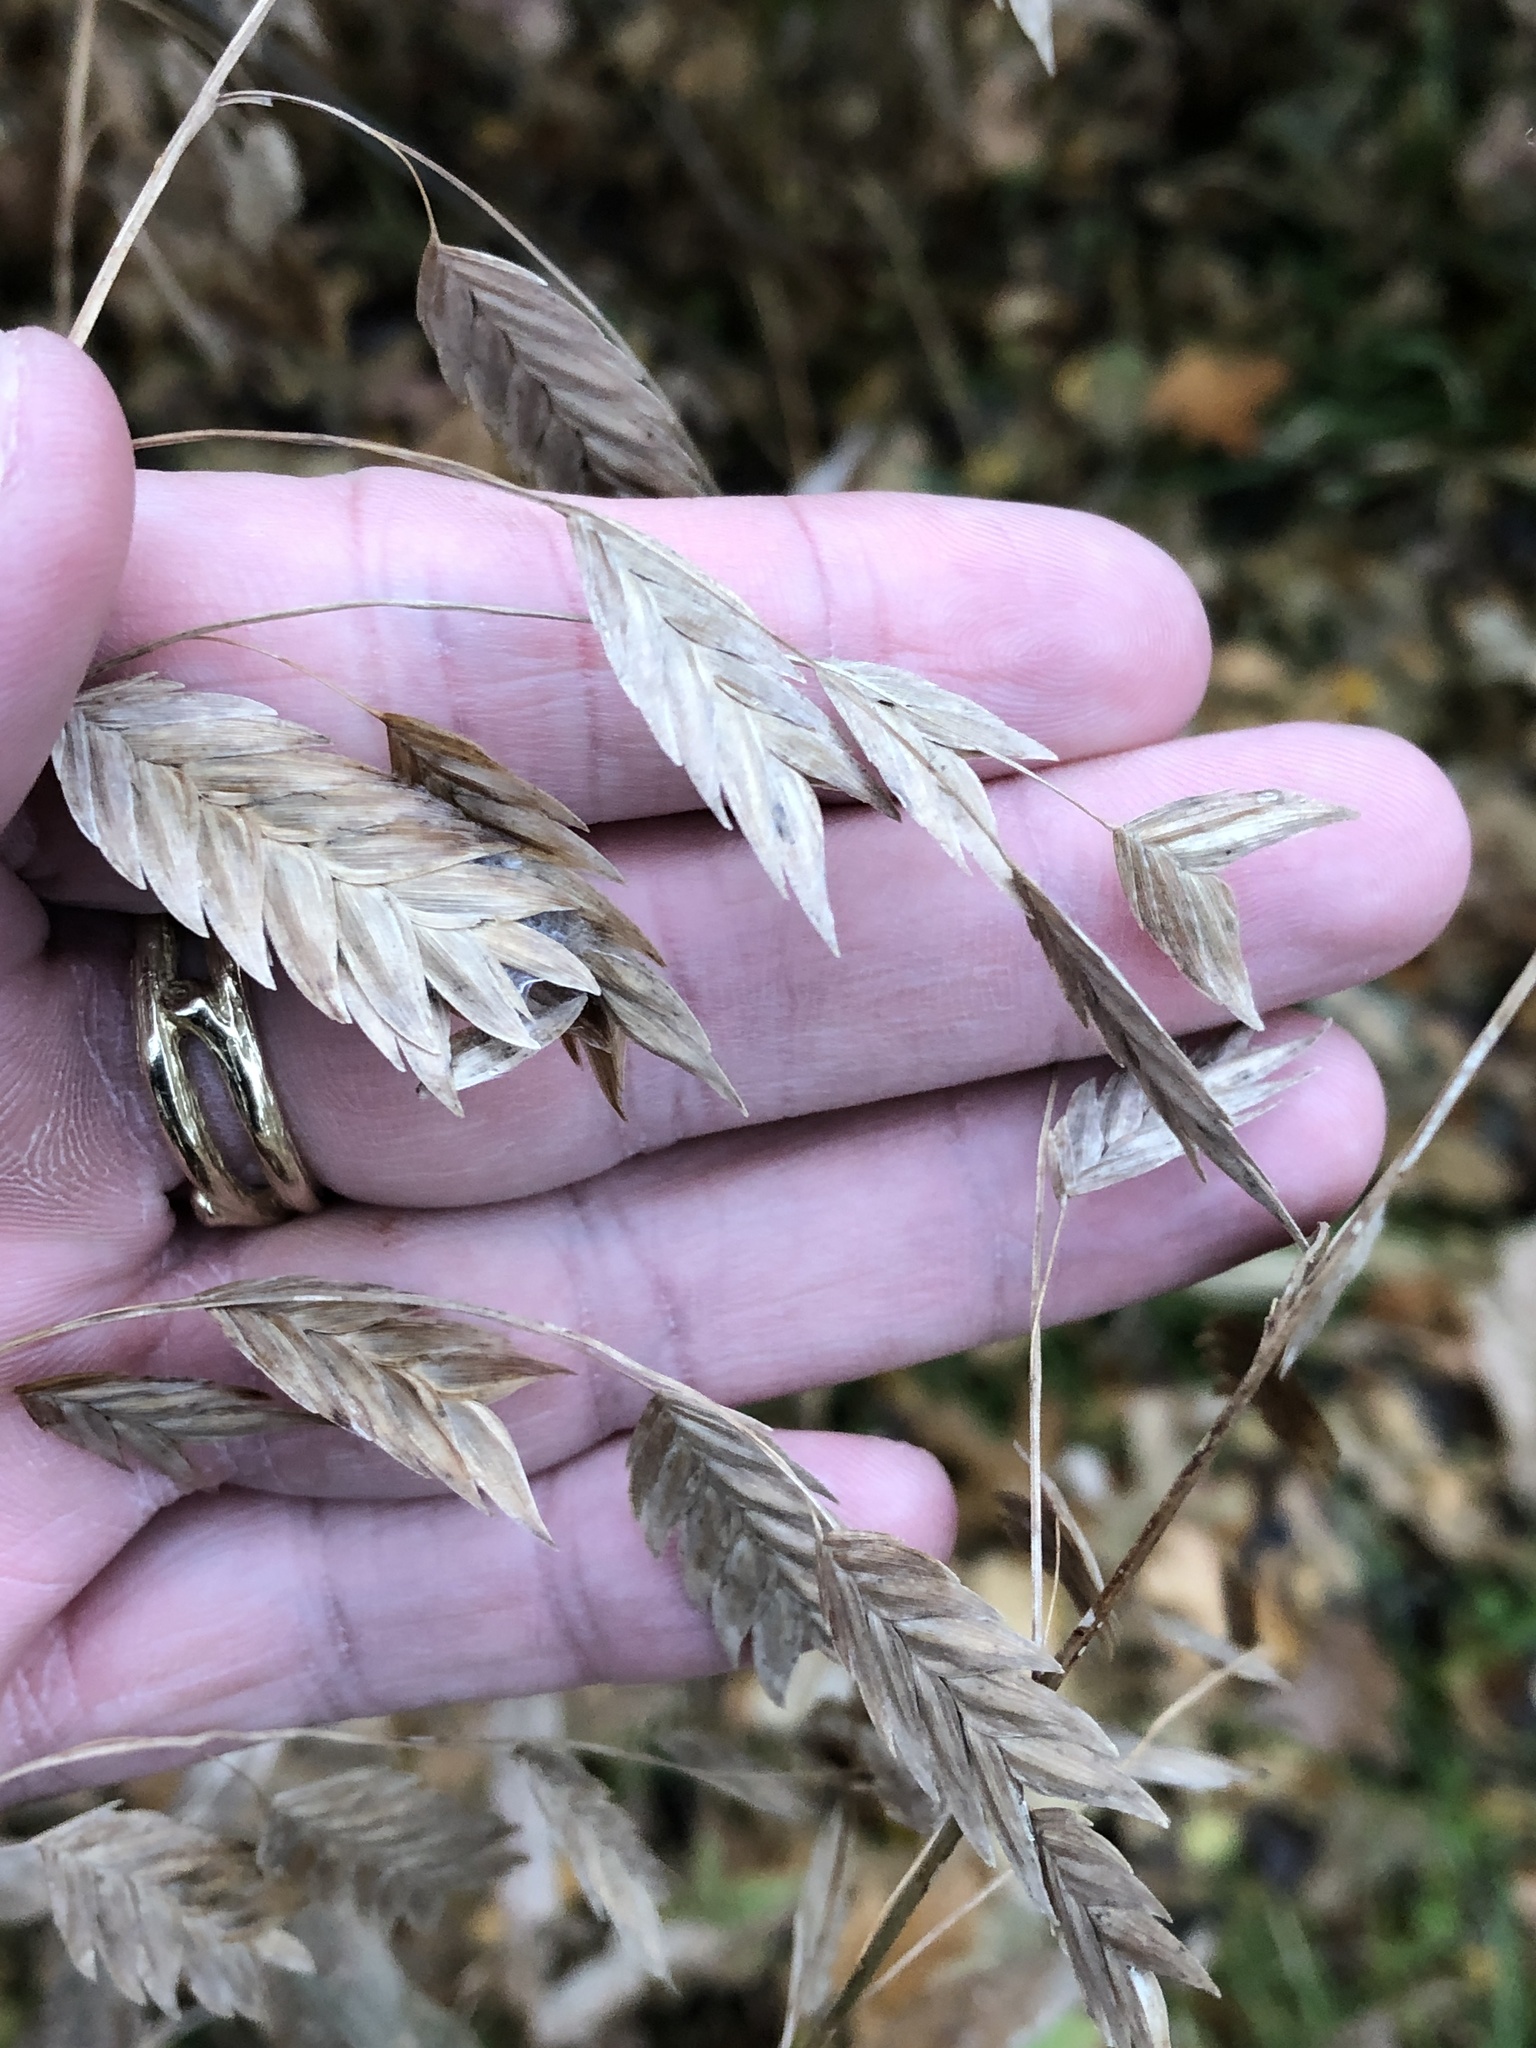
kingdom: Plantae
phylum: Tracheophyta
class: Liliopsida
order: Poales
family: Poaceae
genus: Chasmanthium
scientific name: Chasmanthium latifolium
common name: Broad-leaved chasmanthium
